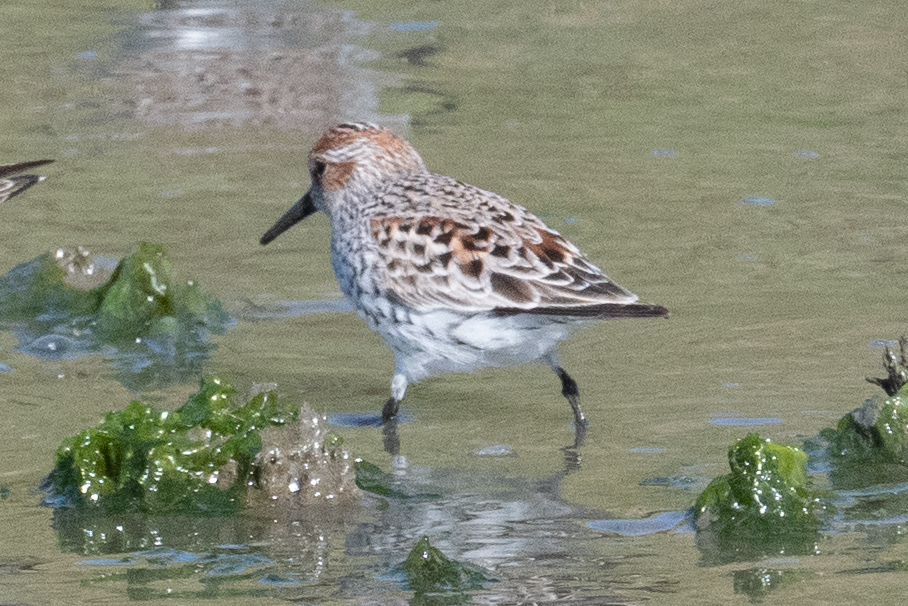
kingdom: Animalia
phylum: Chordata
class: Aves
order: Charadriiformes
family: Scolopacidae
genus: Calidris
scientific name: Calidris mauri
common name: Western sandpiper
